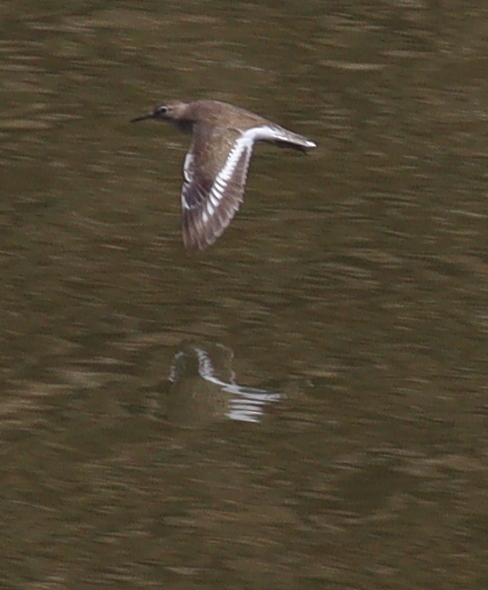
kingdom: Animalia
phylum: Chordata
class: Aves
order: Charadriiformes
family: Scolopacidae
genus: Actitis
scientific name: Actitis hypoleucos
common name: Common sandpiper
